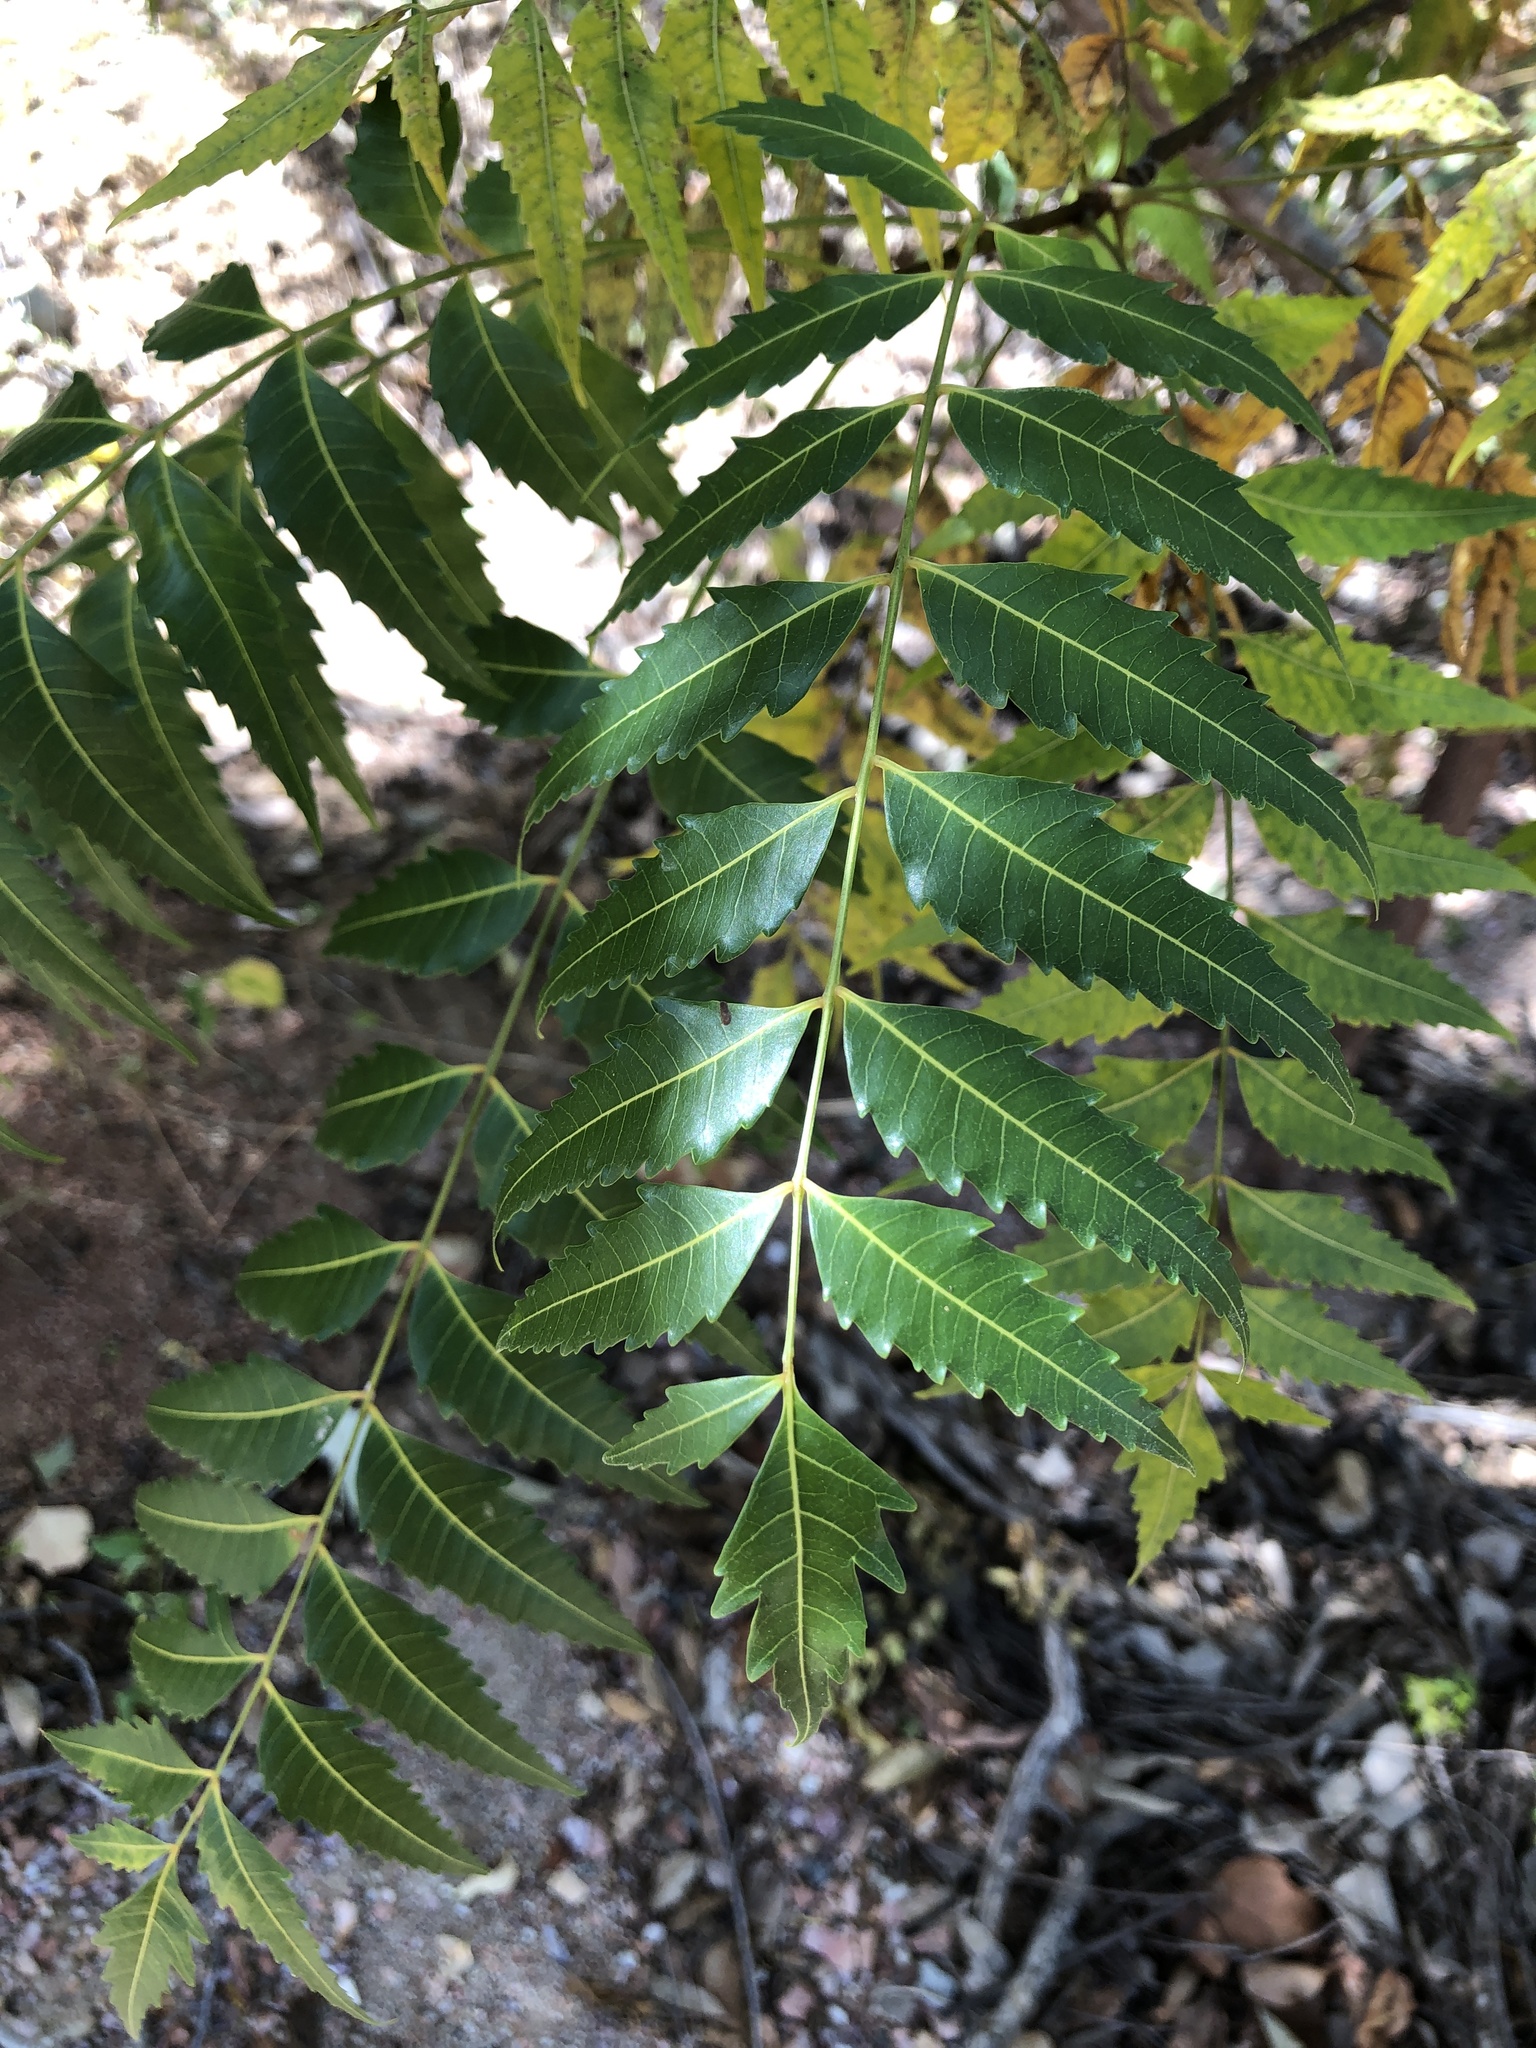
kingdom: Plantae
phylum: Tracheophyta
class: Magnoliopsida
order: Sapindales
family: Meliaceae
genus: Azadirachta
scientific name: Azadirachta indica
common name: Neem
